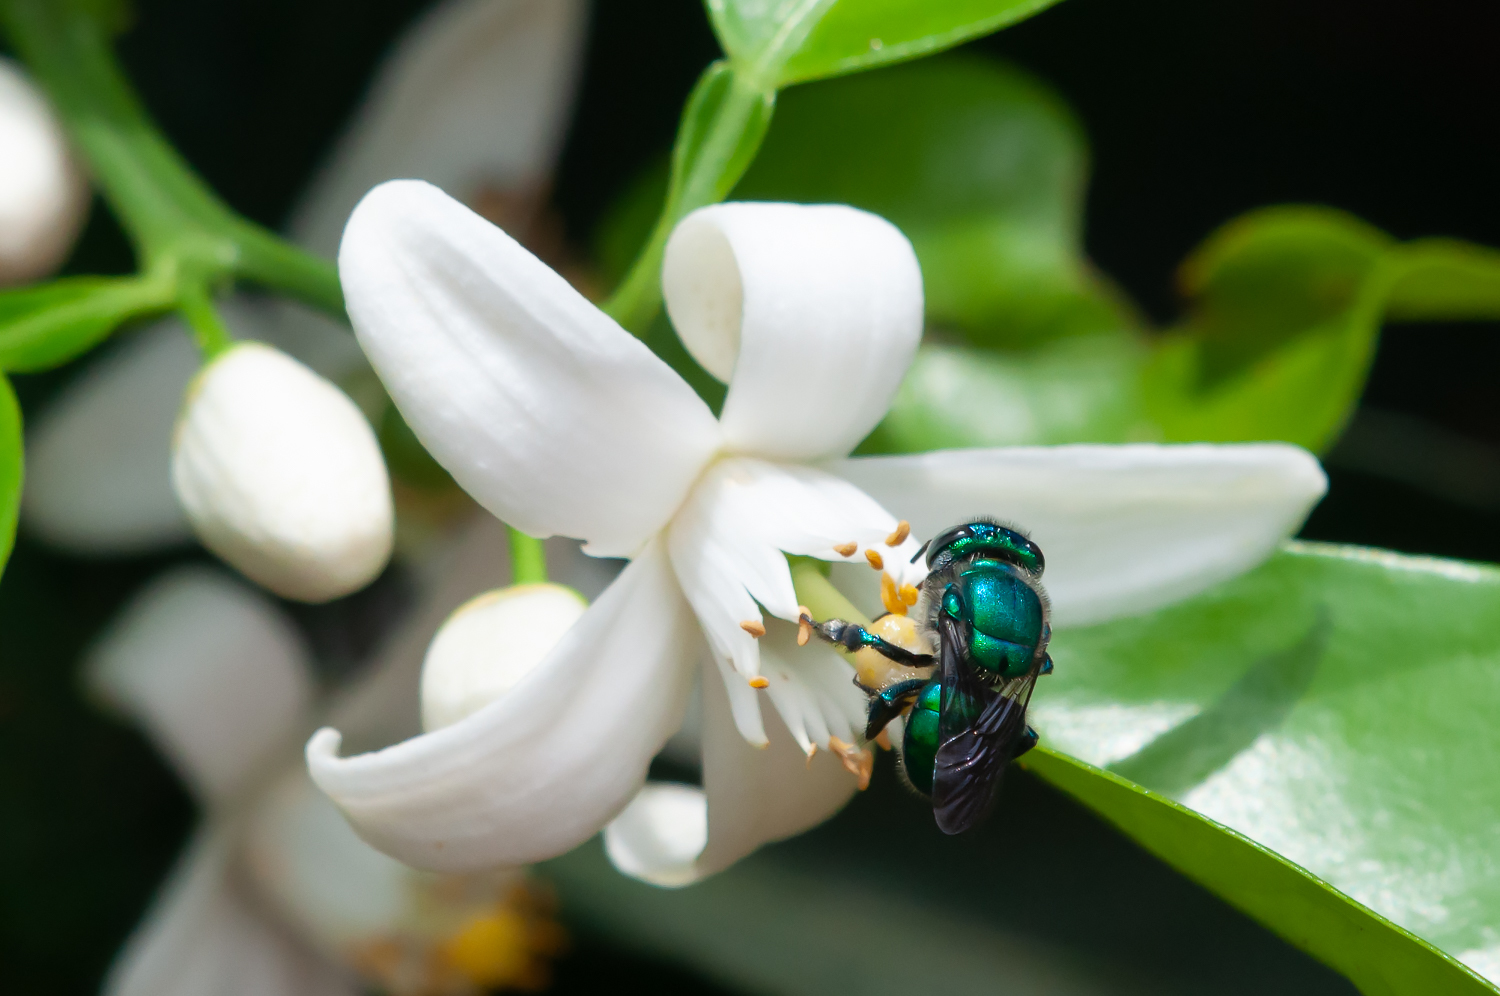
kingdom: Animalia
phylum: Arthropoda
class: Insecta
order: Hymenoptera
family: Apidae
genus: Euglossa
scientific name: Euglossa
